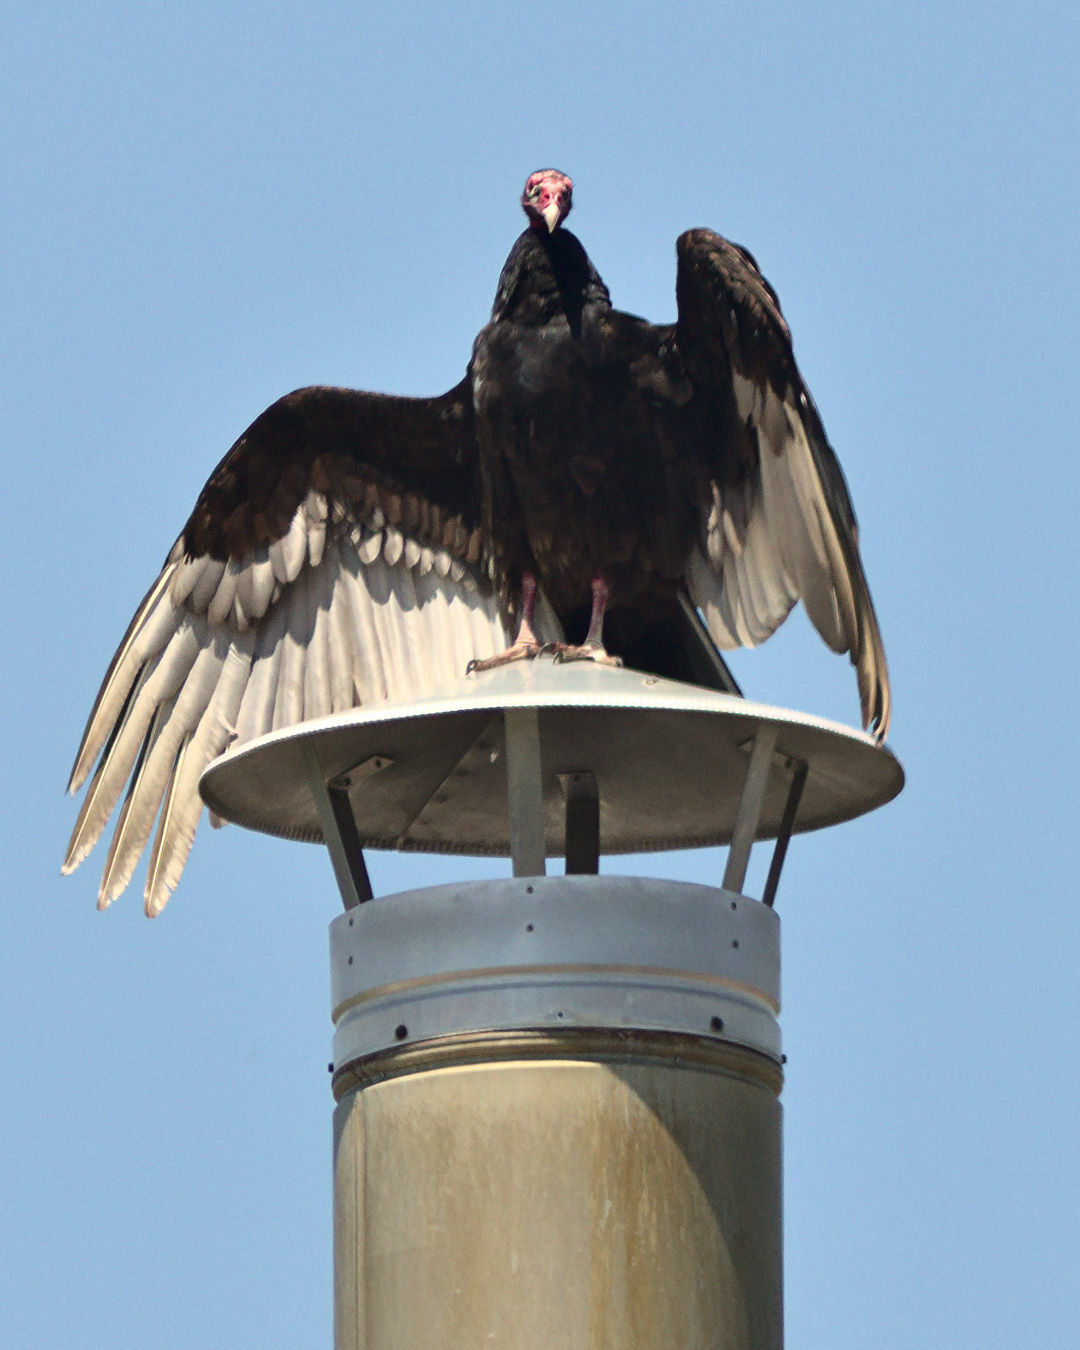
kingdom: Animalia
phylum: Chordata
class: Aves
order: Accipitriformes
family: Cathartidae
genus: Cathartes
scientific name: Cathartes aura
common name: Turkey vulture
